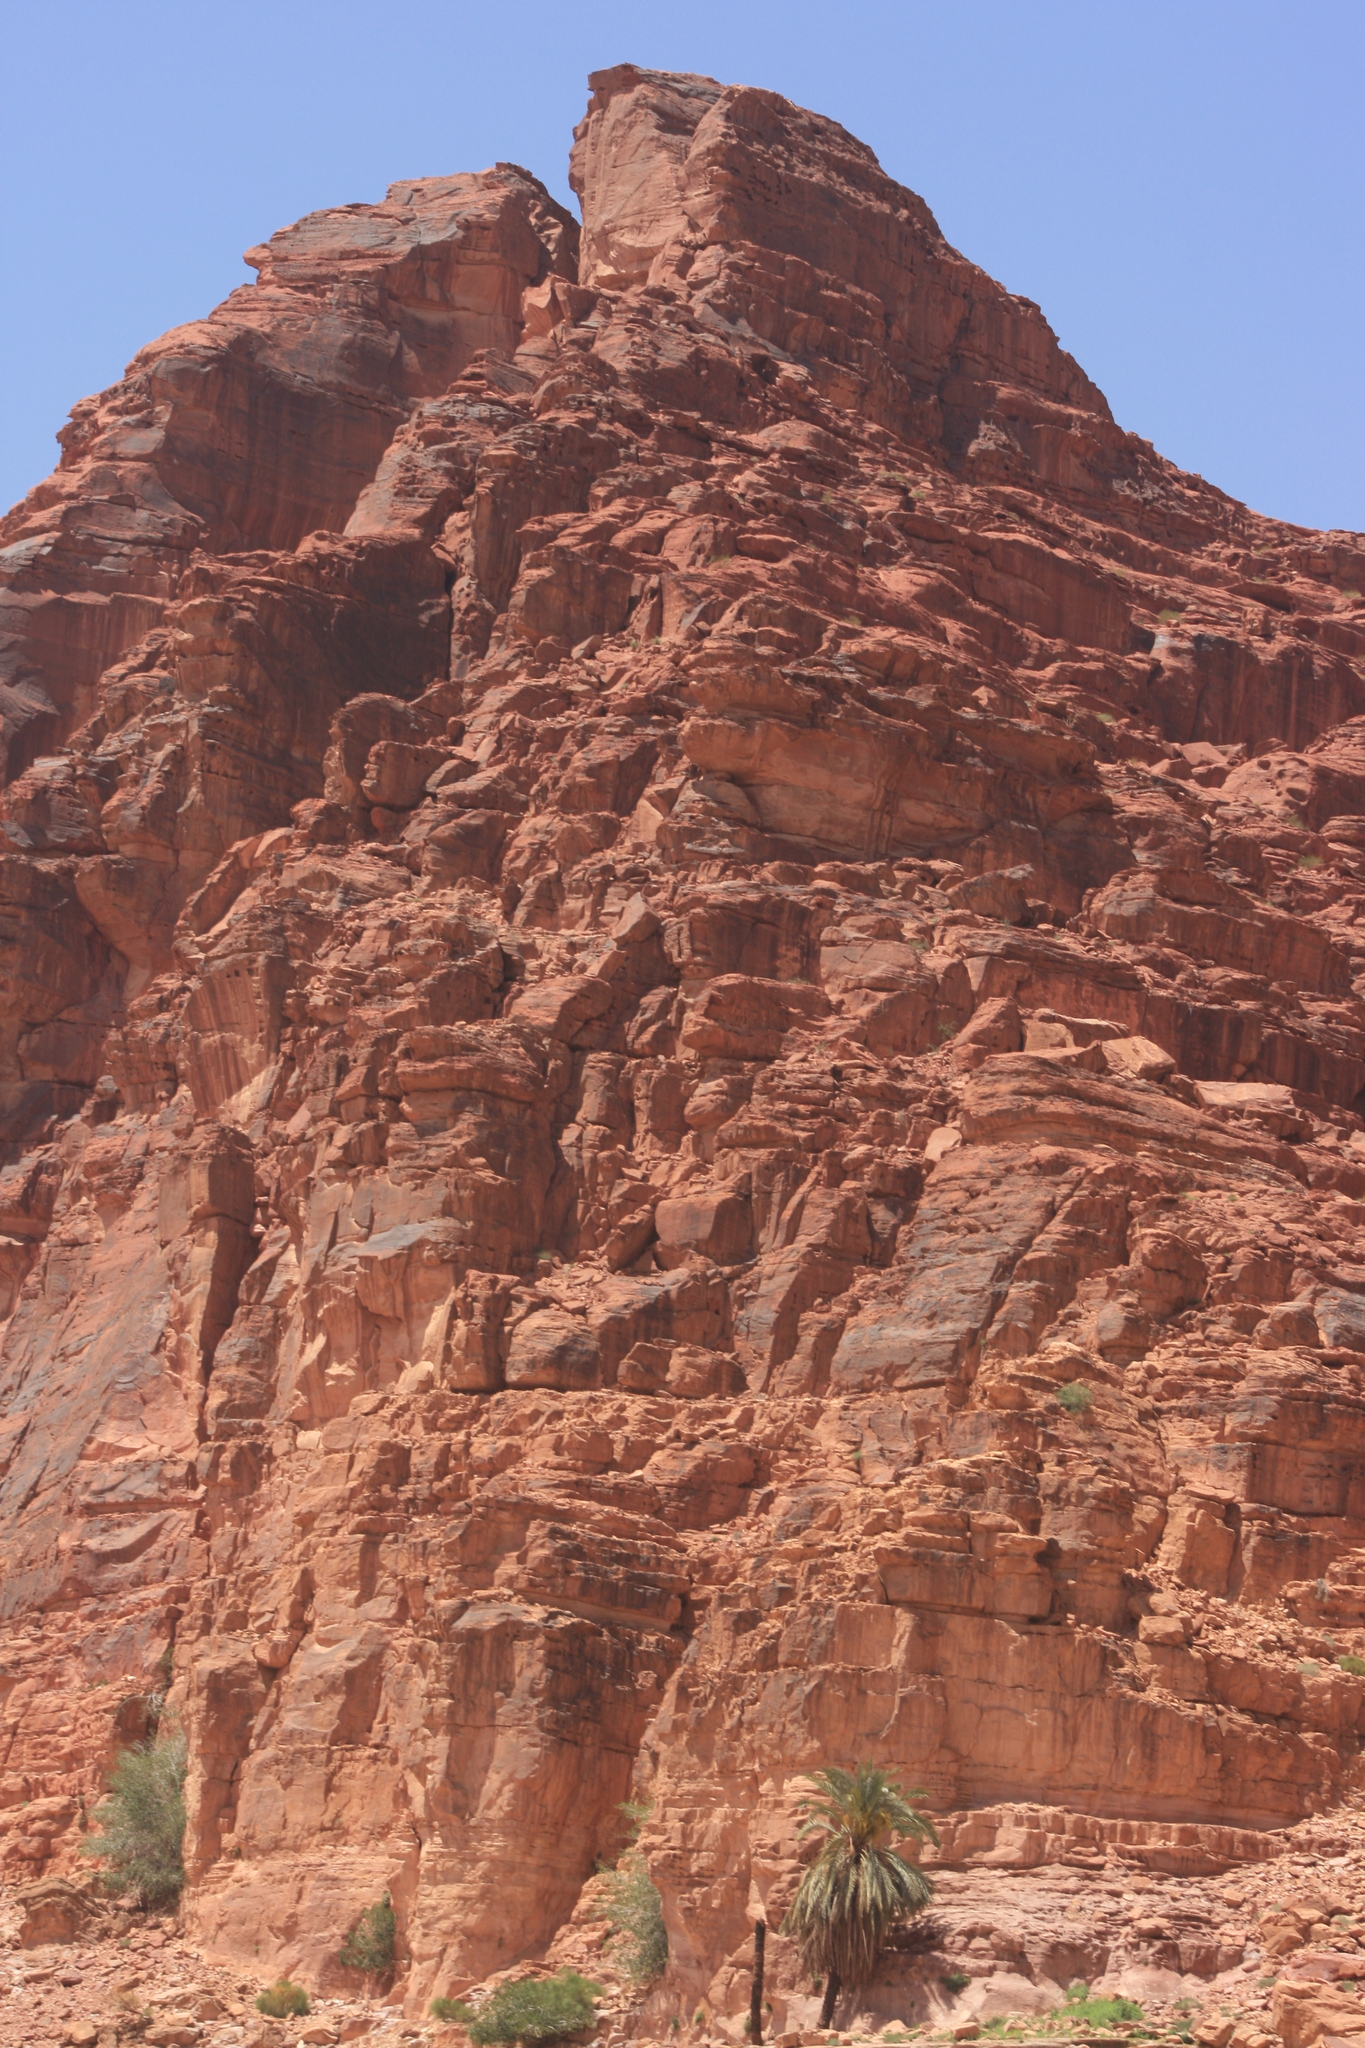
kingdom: Plantae
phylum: Tracheophyta
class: Liliopsida
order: Arecales
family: Arecaceae
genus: Phoenix
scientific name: Phoenix dactylifera
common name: Date palm
